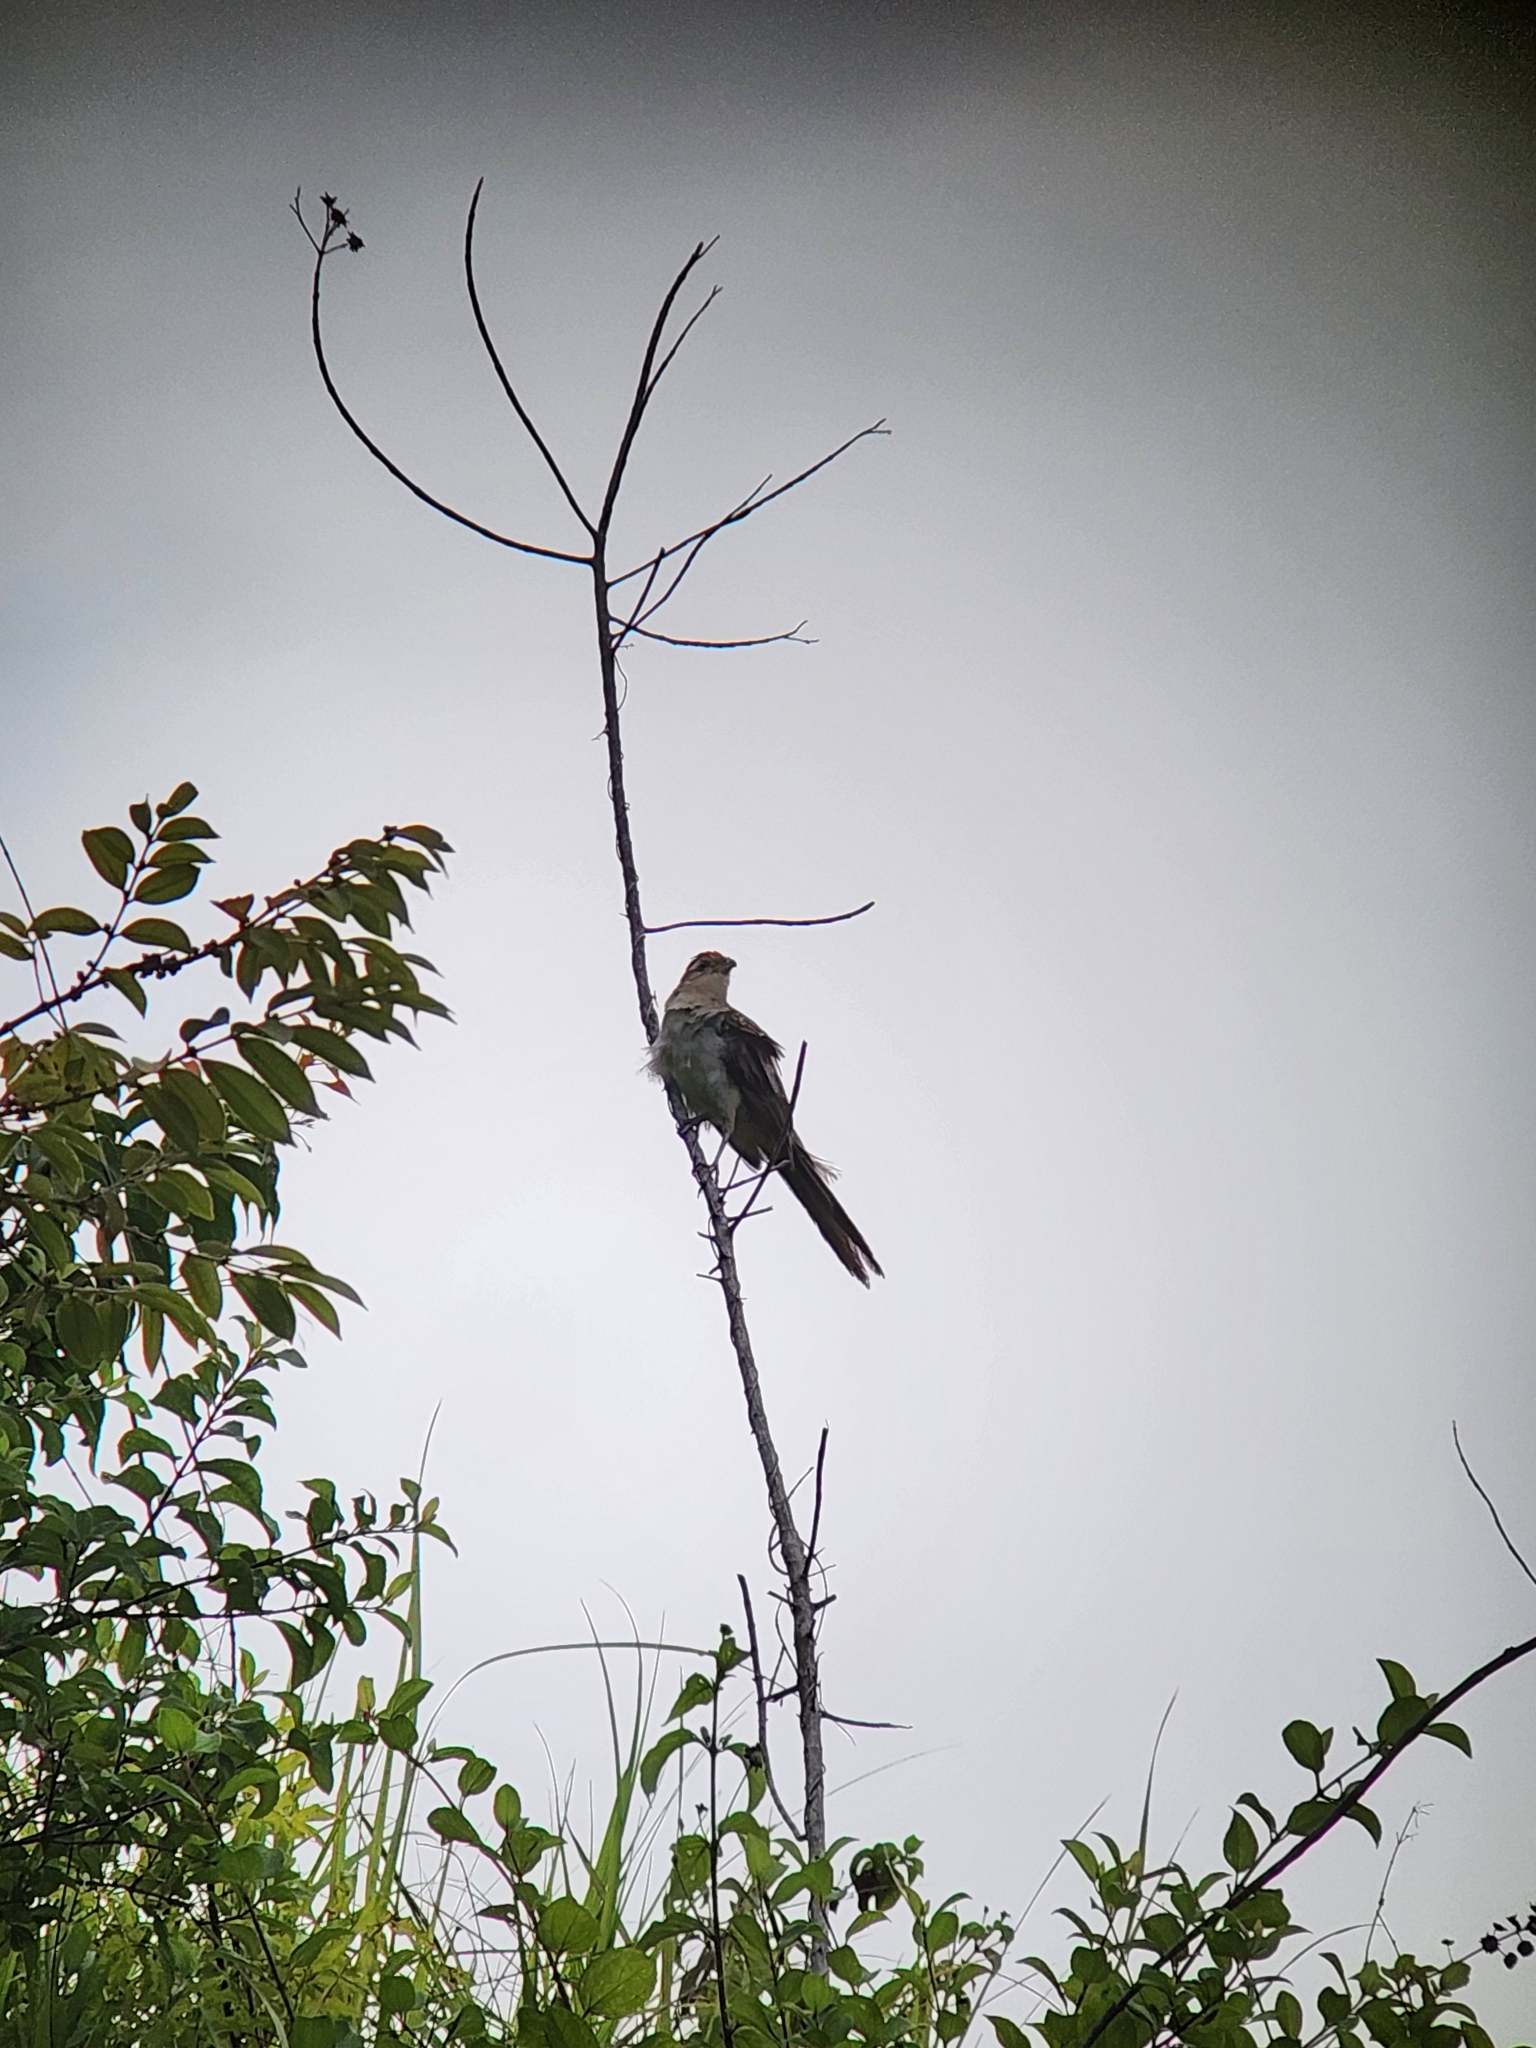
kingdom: Animalia
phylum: Chordata
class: Aves
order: Cuculiformes
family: Cuculidae
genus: Tapera
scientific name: Tapera naevia
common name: Striped cuckoo
